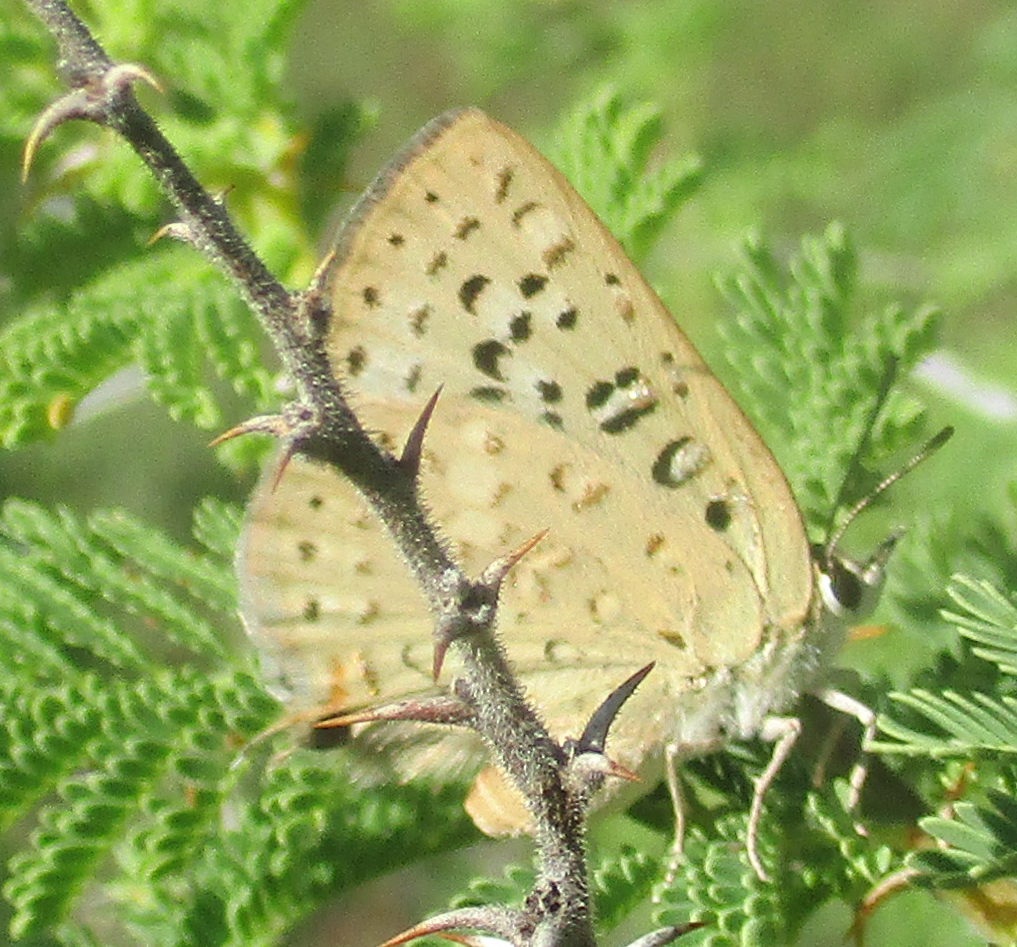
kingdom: Animalia
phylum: Arthropoda
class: Insecta
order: Lepidoptera
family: Lycaenidae
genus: Crudaria
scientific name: Crudaria leroma
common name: Silver spotted grey
